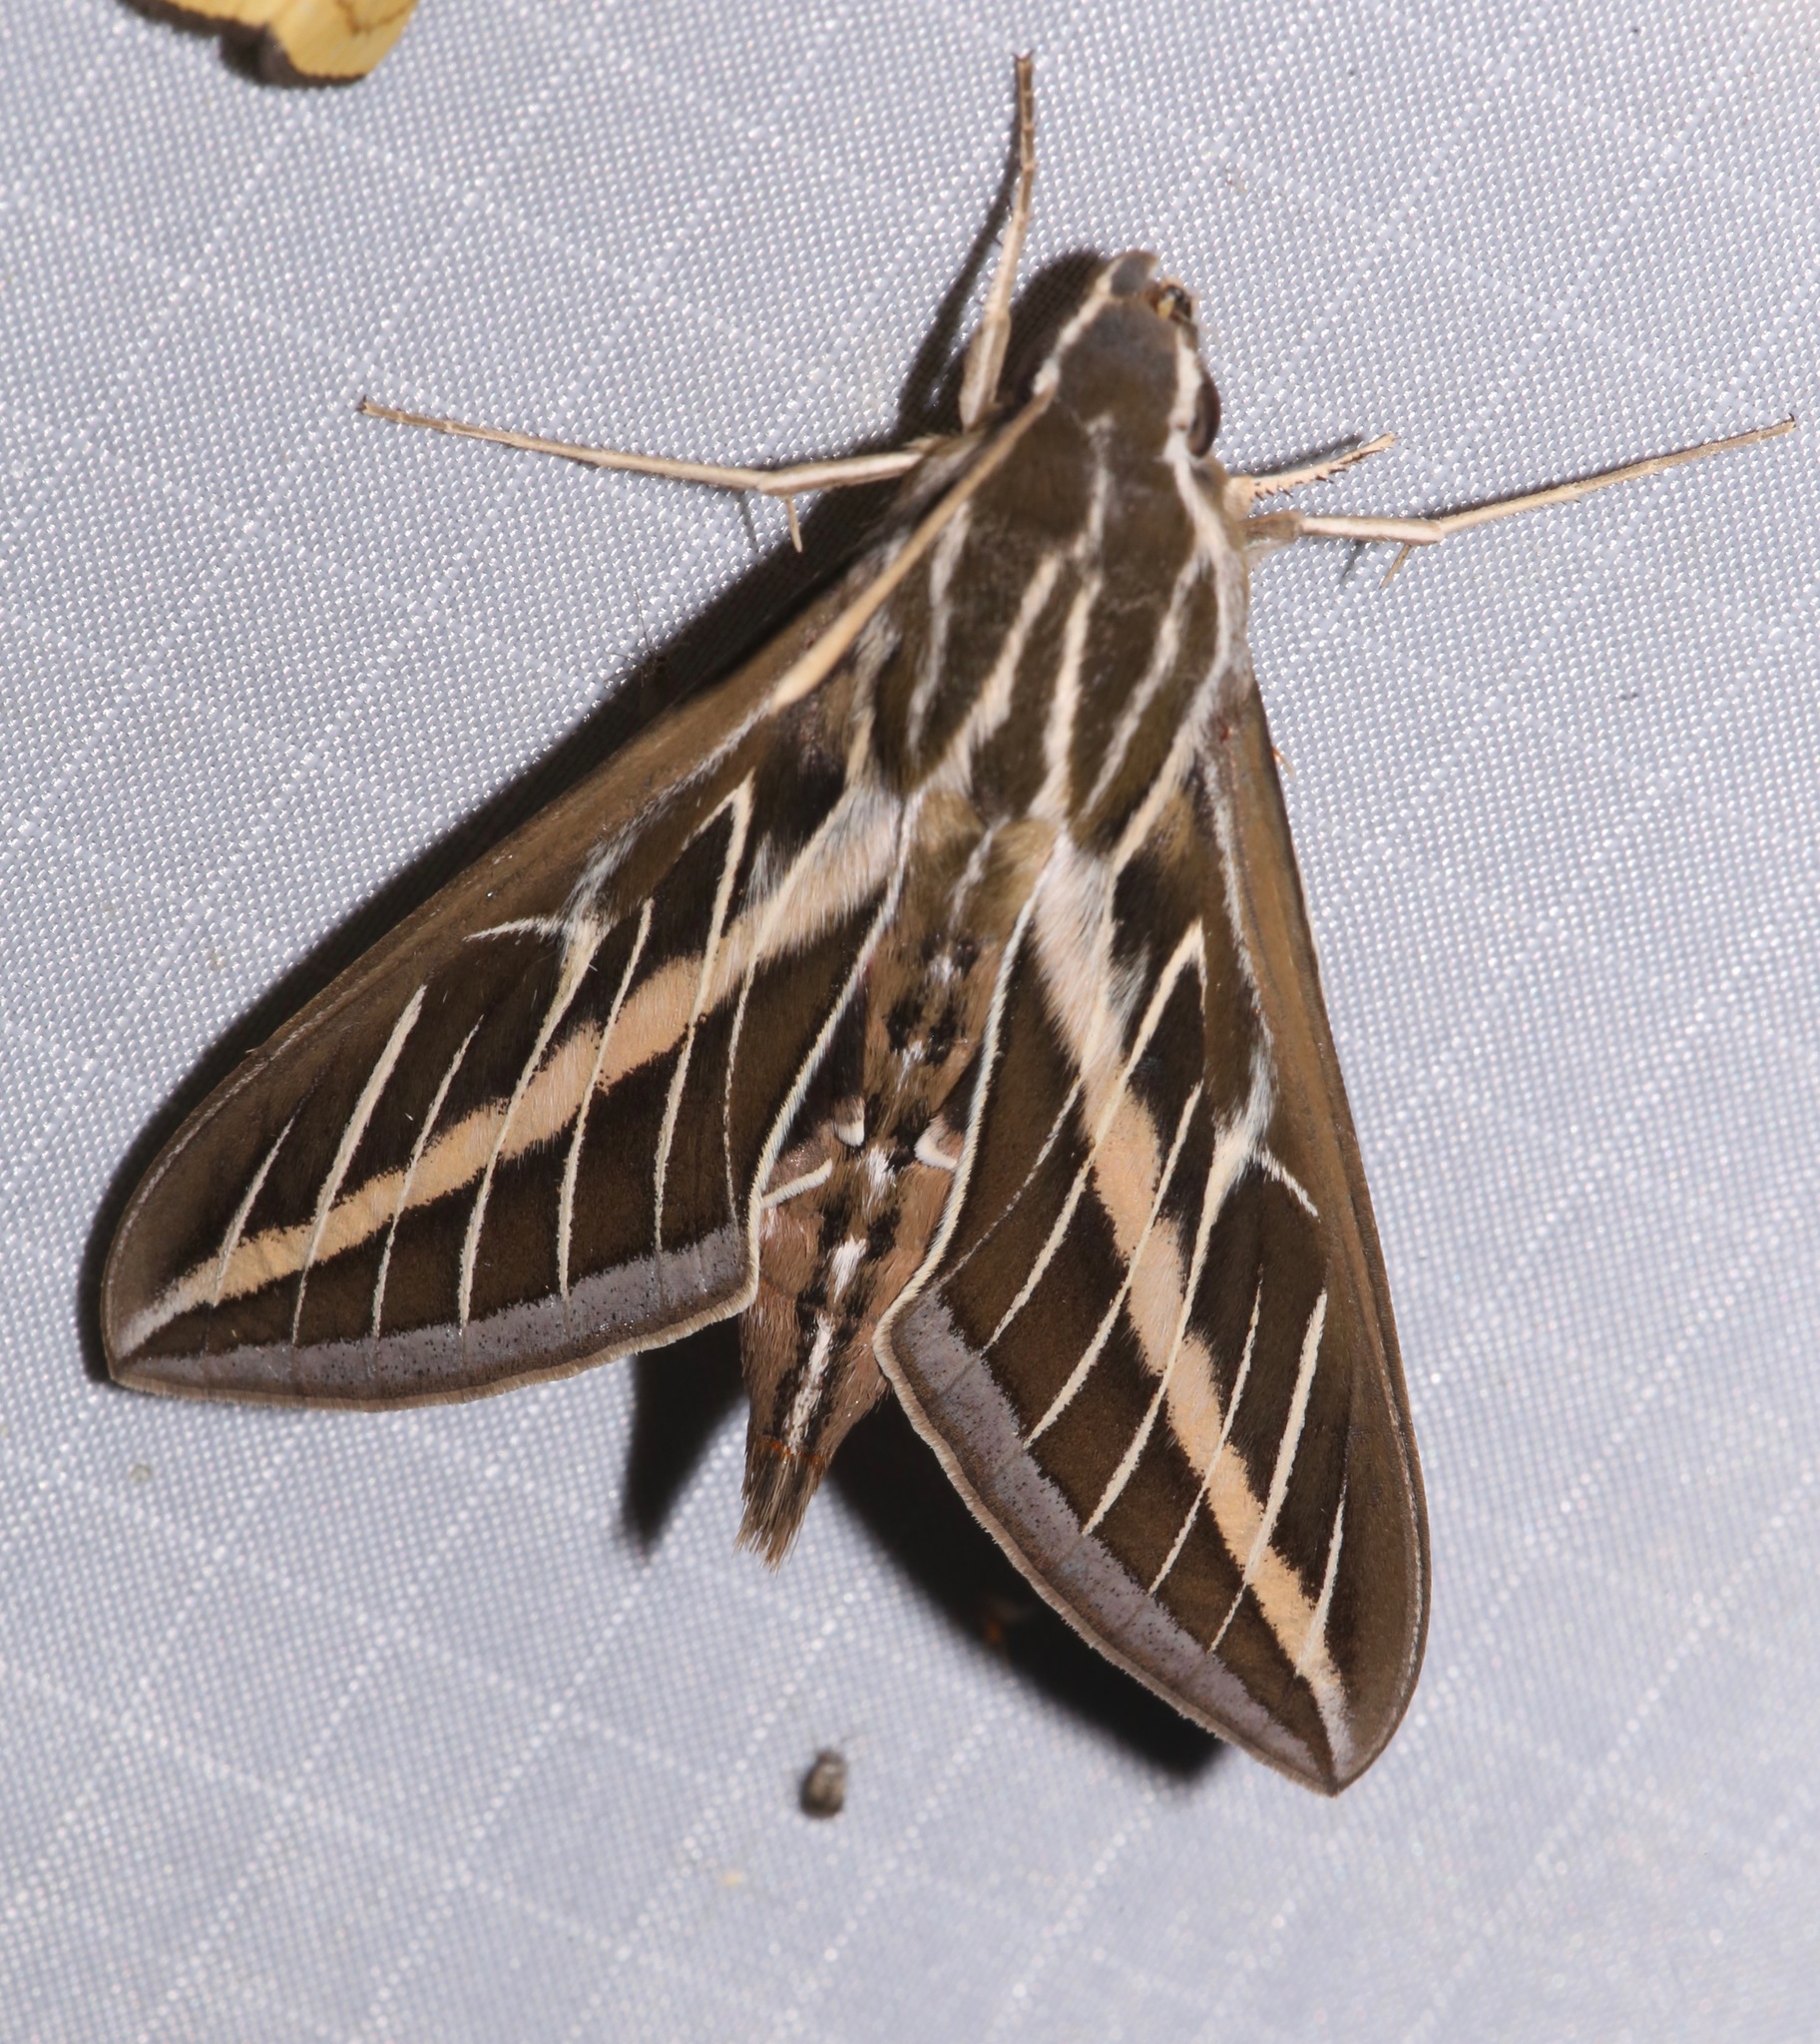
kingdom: Animalia
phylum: Arthropoda
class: Insecta
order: Lepidoptera
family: Sphingidae
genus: Hyles
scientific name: Hyles lineata
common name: White-lined sphinx
